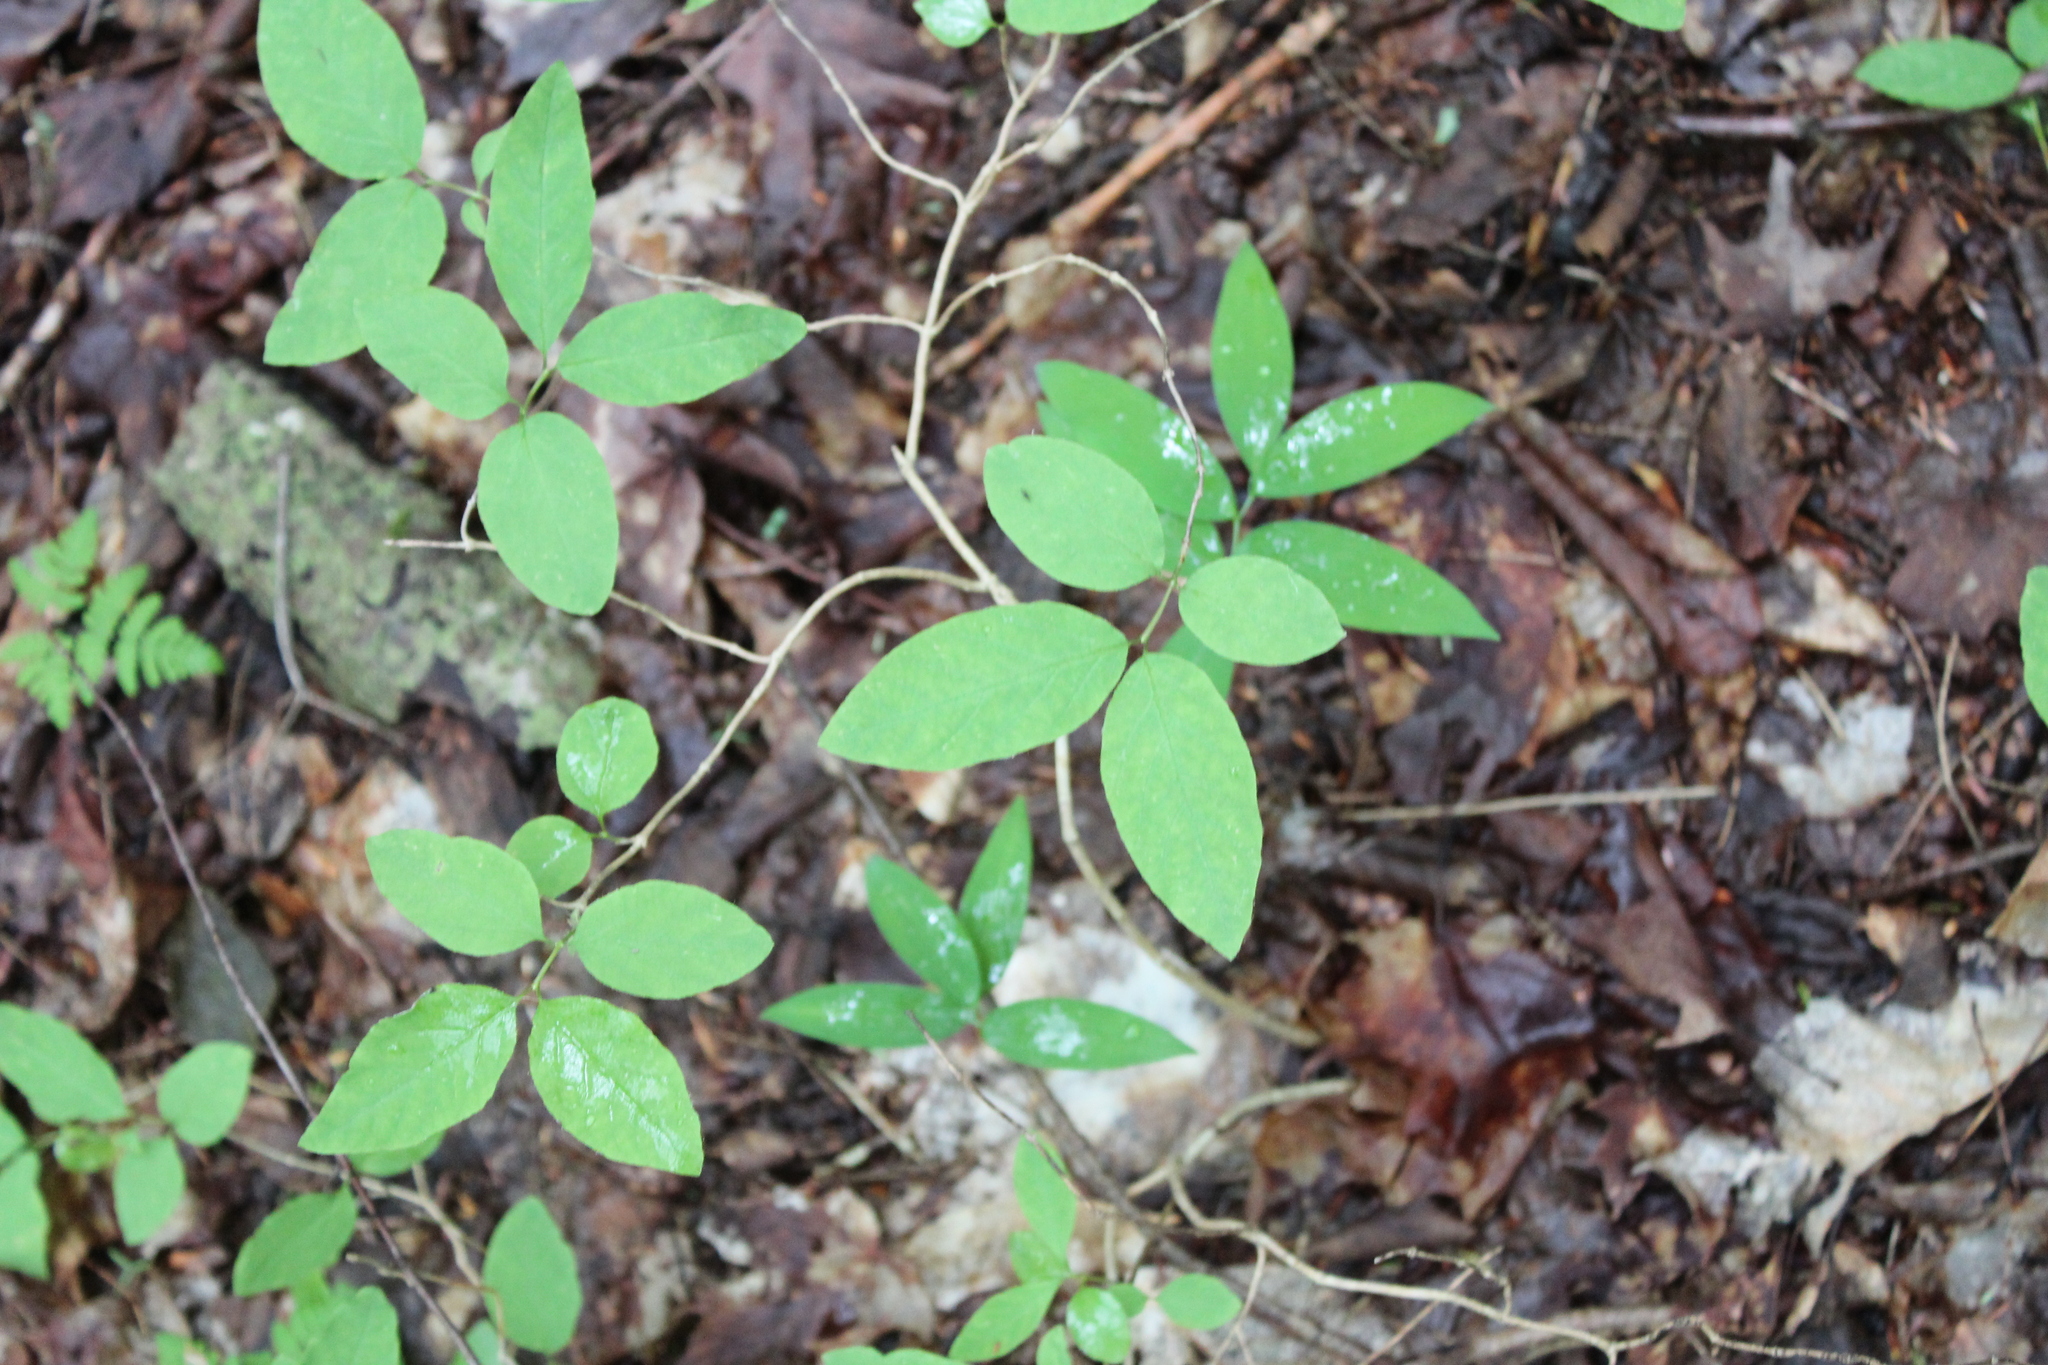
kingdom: Plantae
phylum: Tracheophyta
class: Magnoliopsida
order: Dipsacales
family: Caprifoliaceae
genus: Lonicera
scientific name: Lonicera canadensis
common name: American fly-honeysuckle
